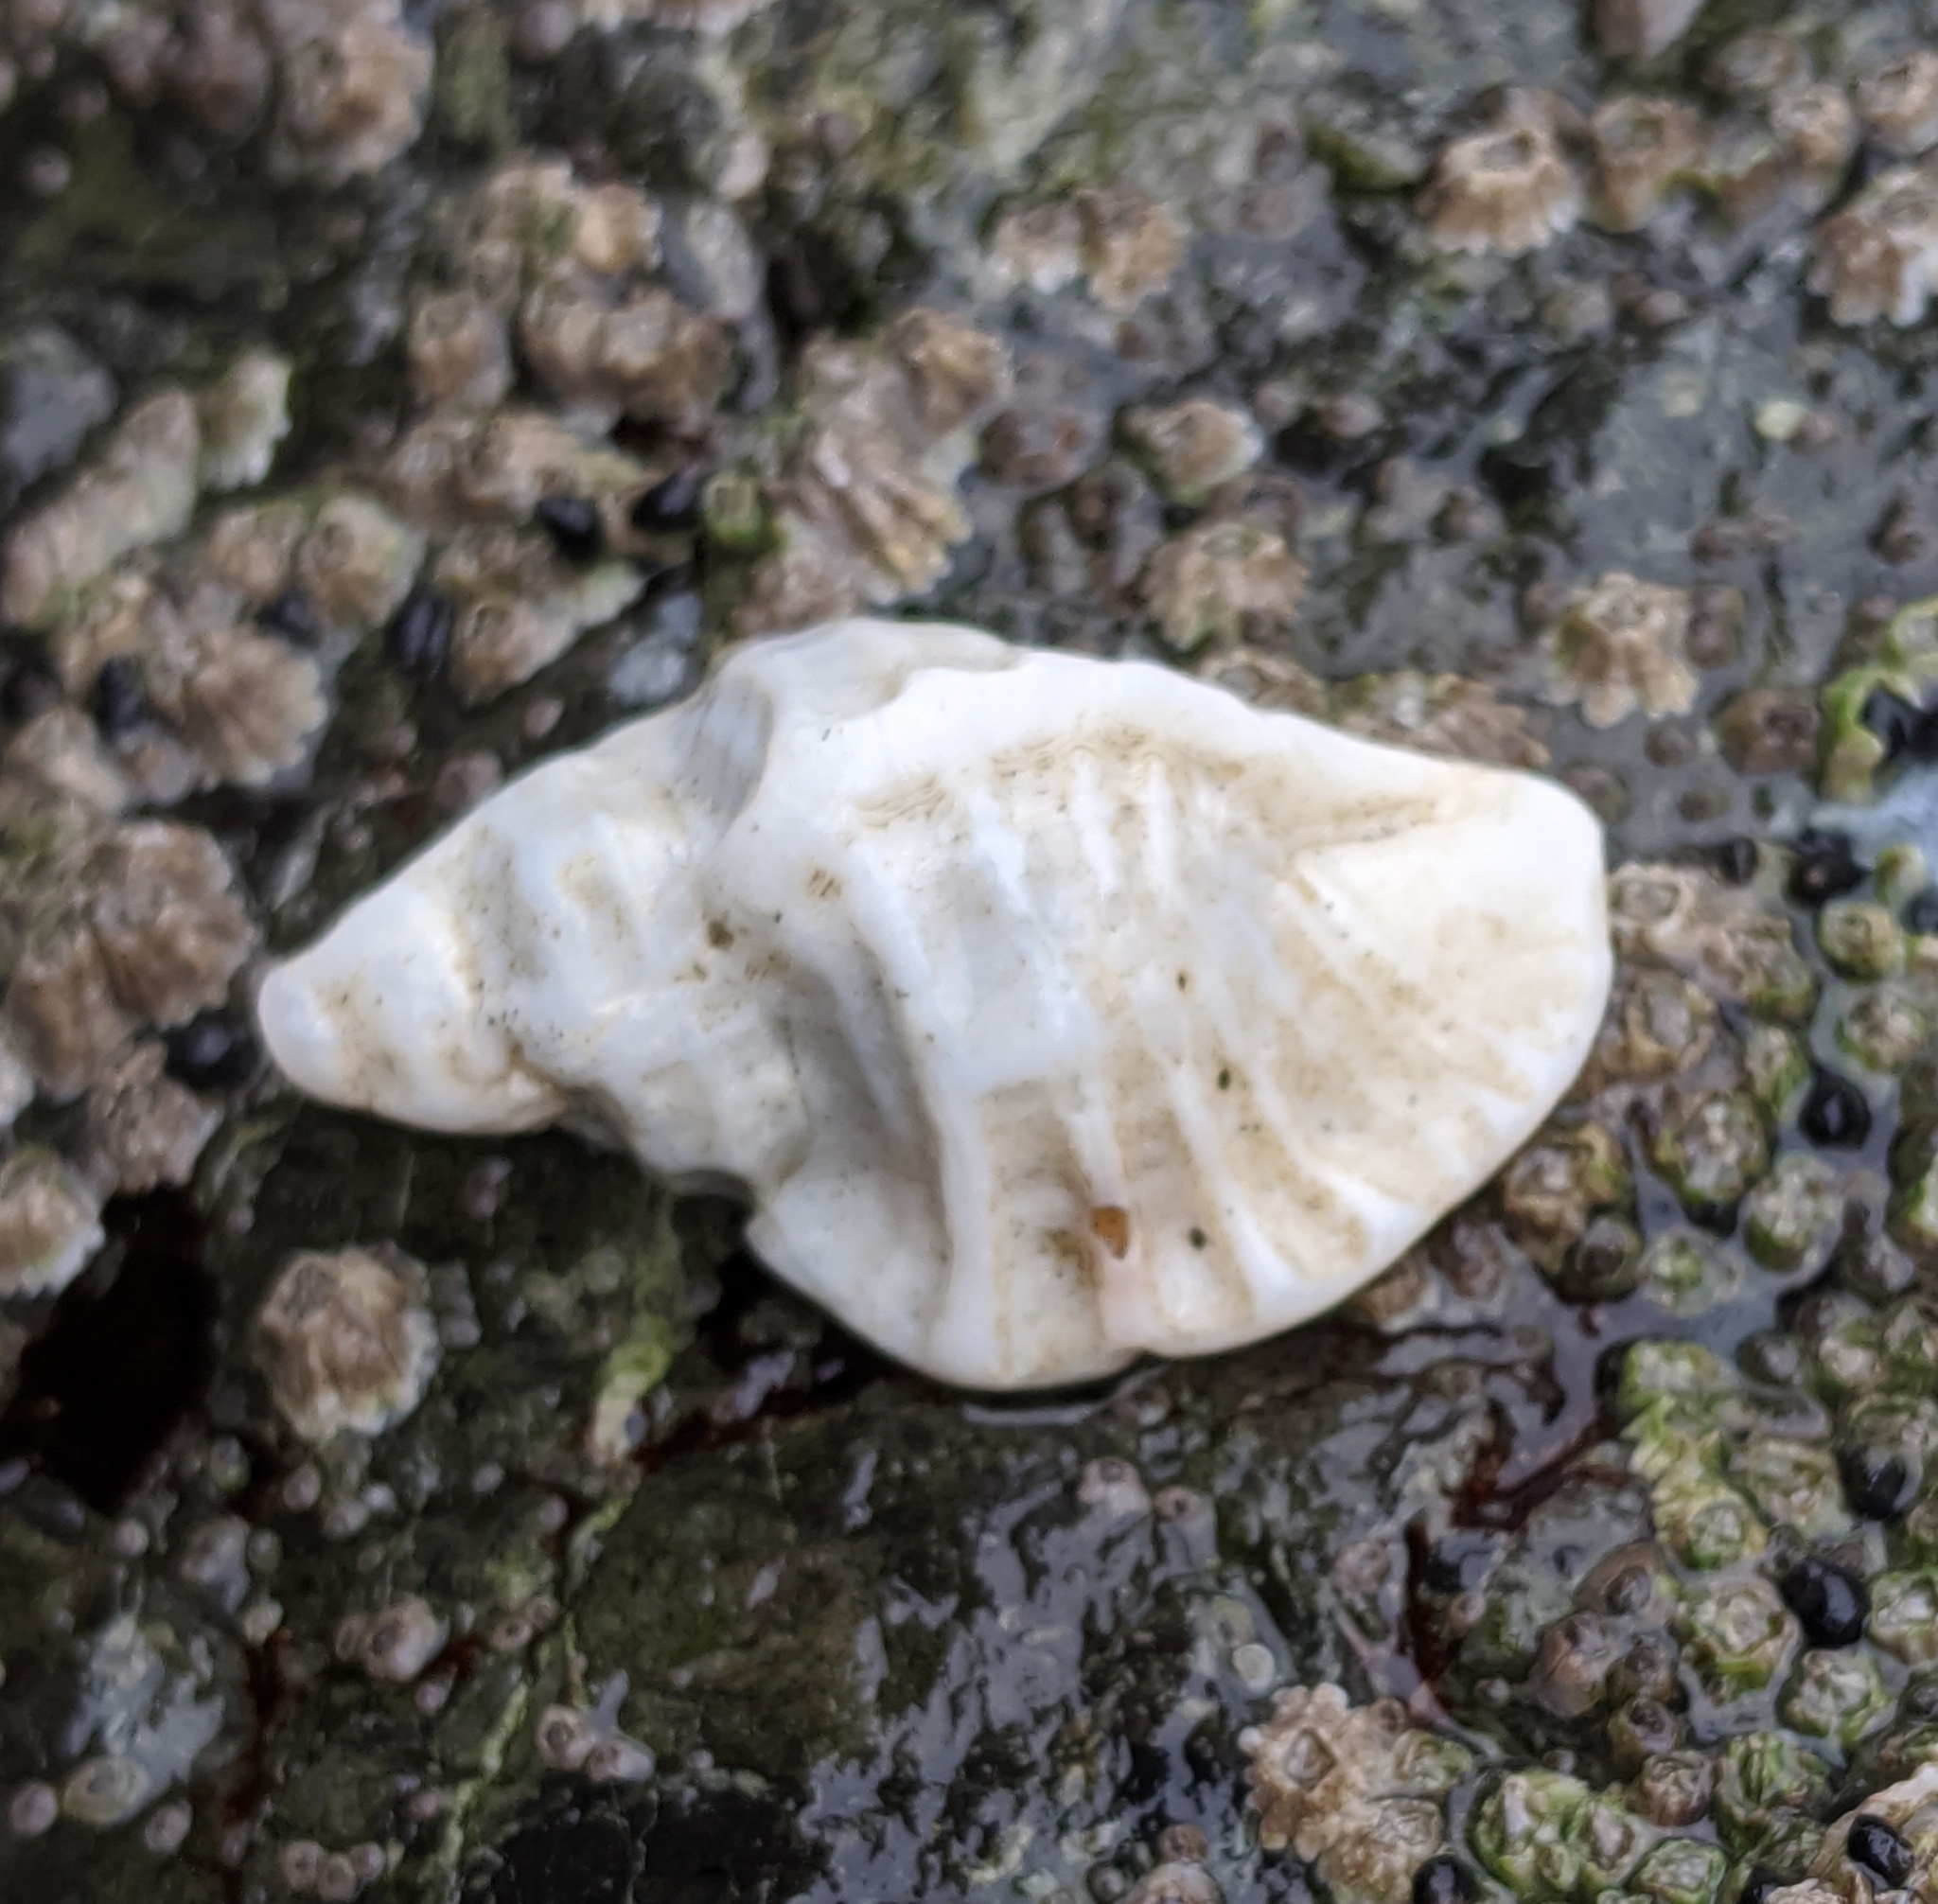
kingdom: Animalia
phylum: Mollusca
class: Gastropoda
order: Neogastropoda
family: Muricidae
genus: Ceratostoma
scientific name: Ceratostoma foliatum
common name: Foliate thorn purpura
